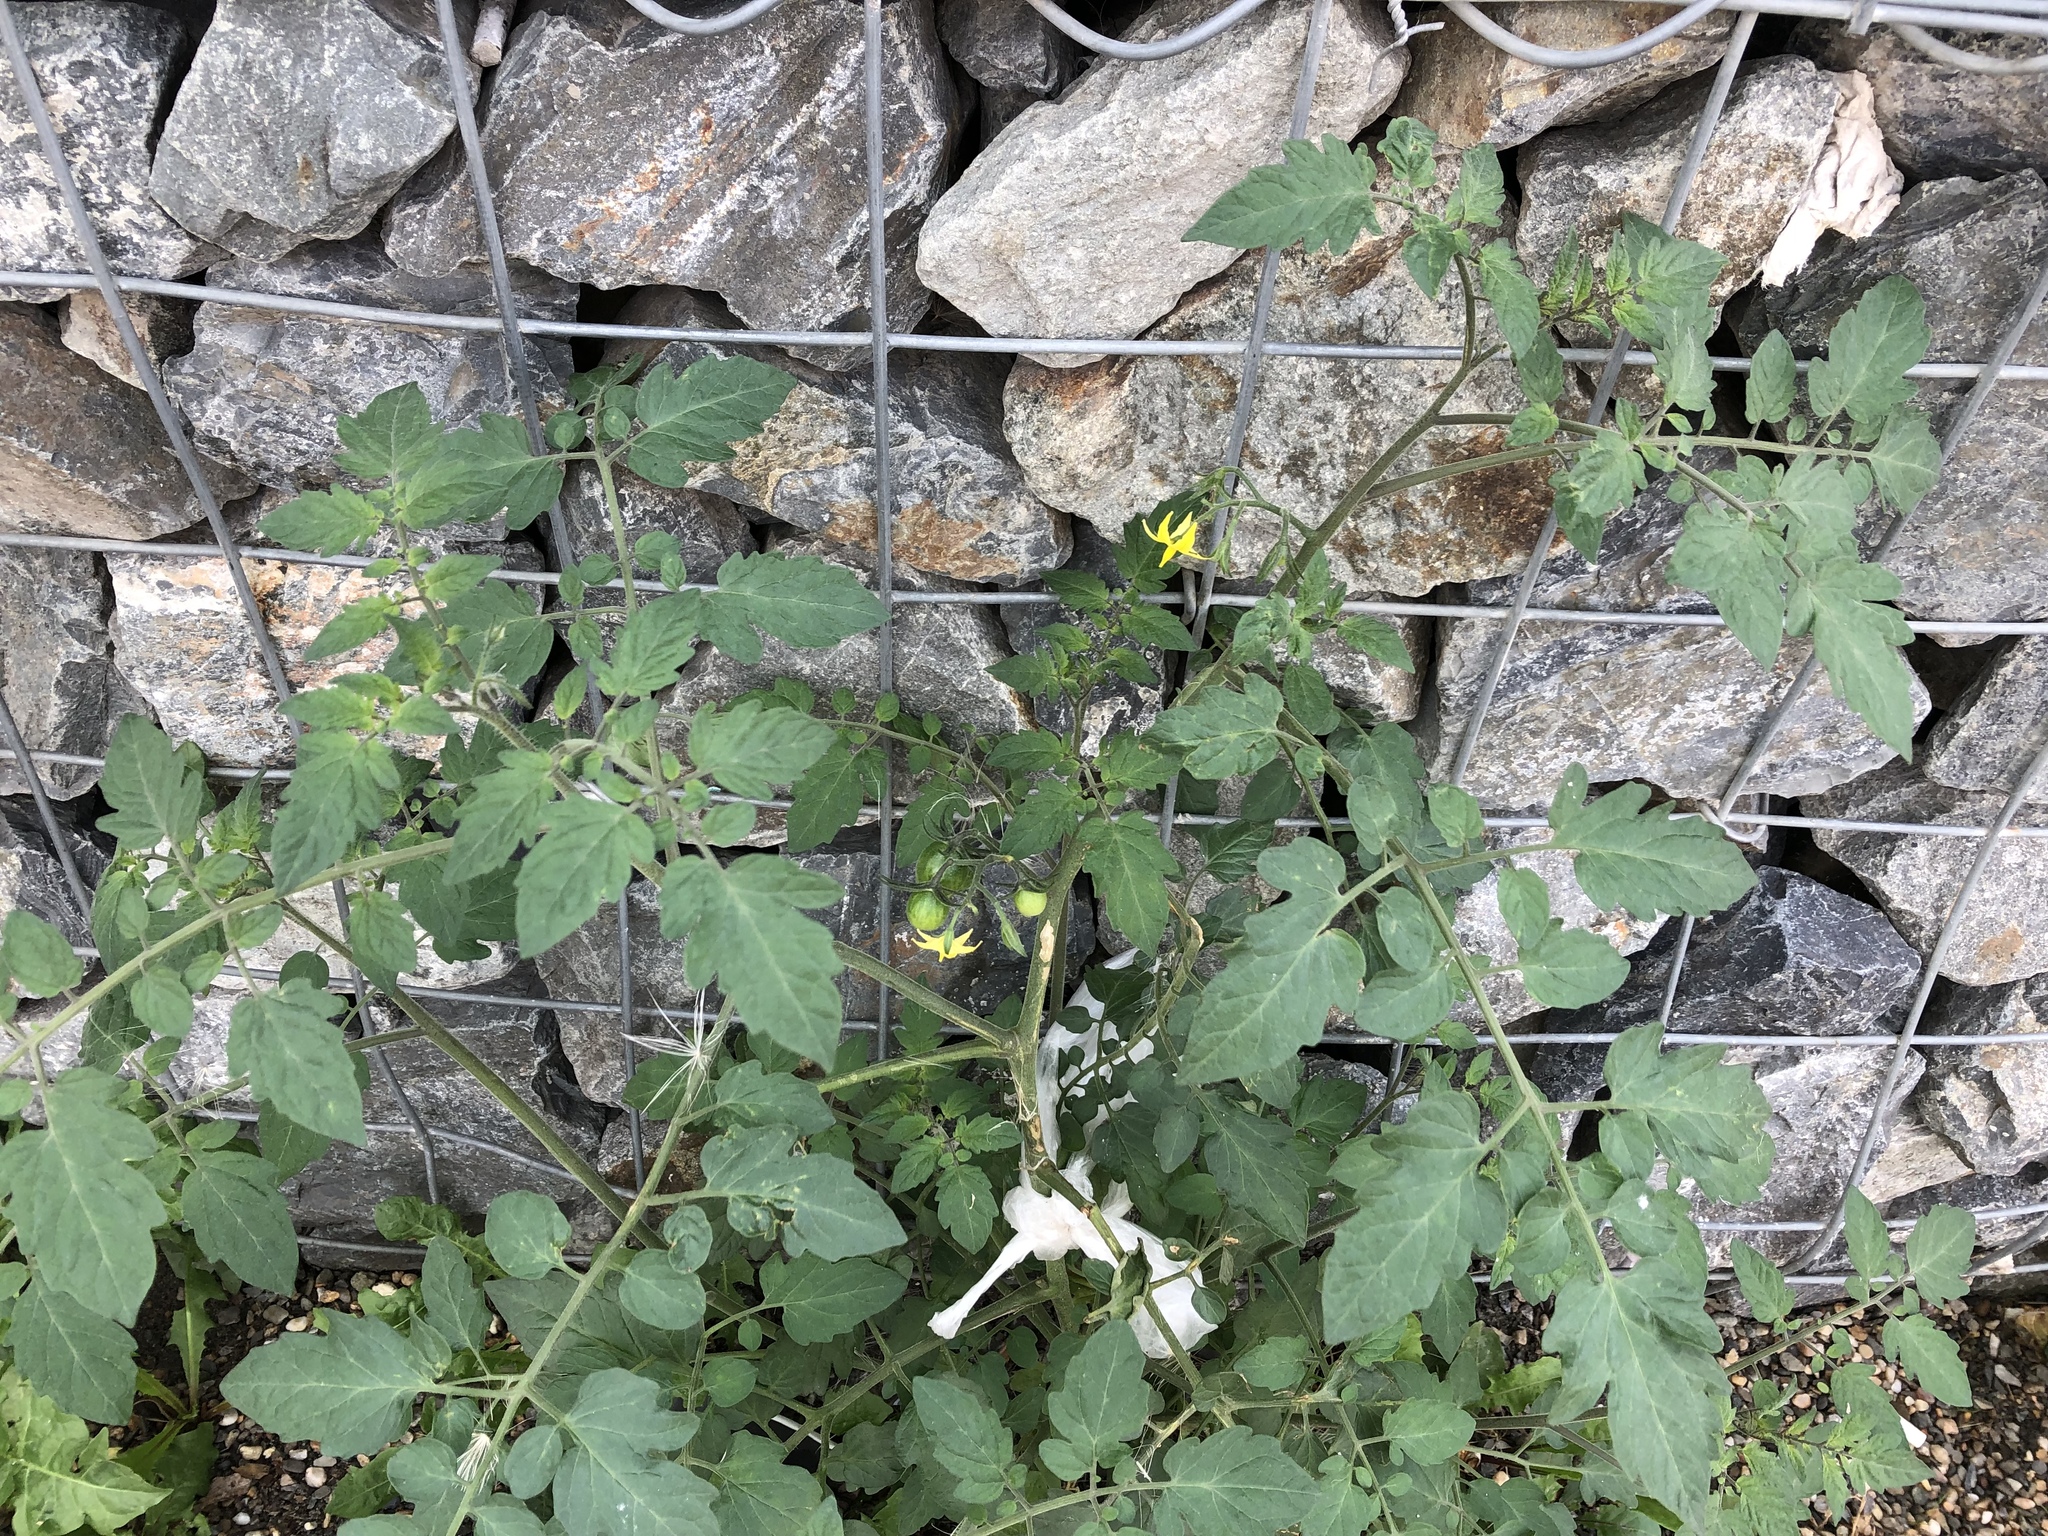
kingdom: Plantae
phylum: Tracheophyta
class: Magnoliopsida
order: Solanales
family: Solanaceae
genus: Solanum
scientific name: Solanum lycopersicum
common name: Garden tomato
